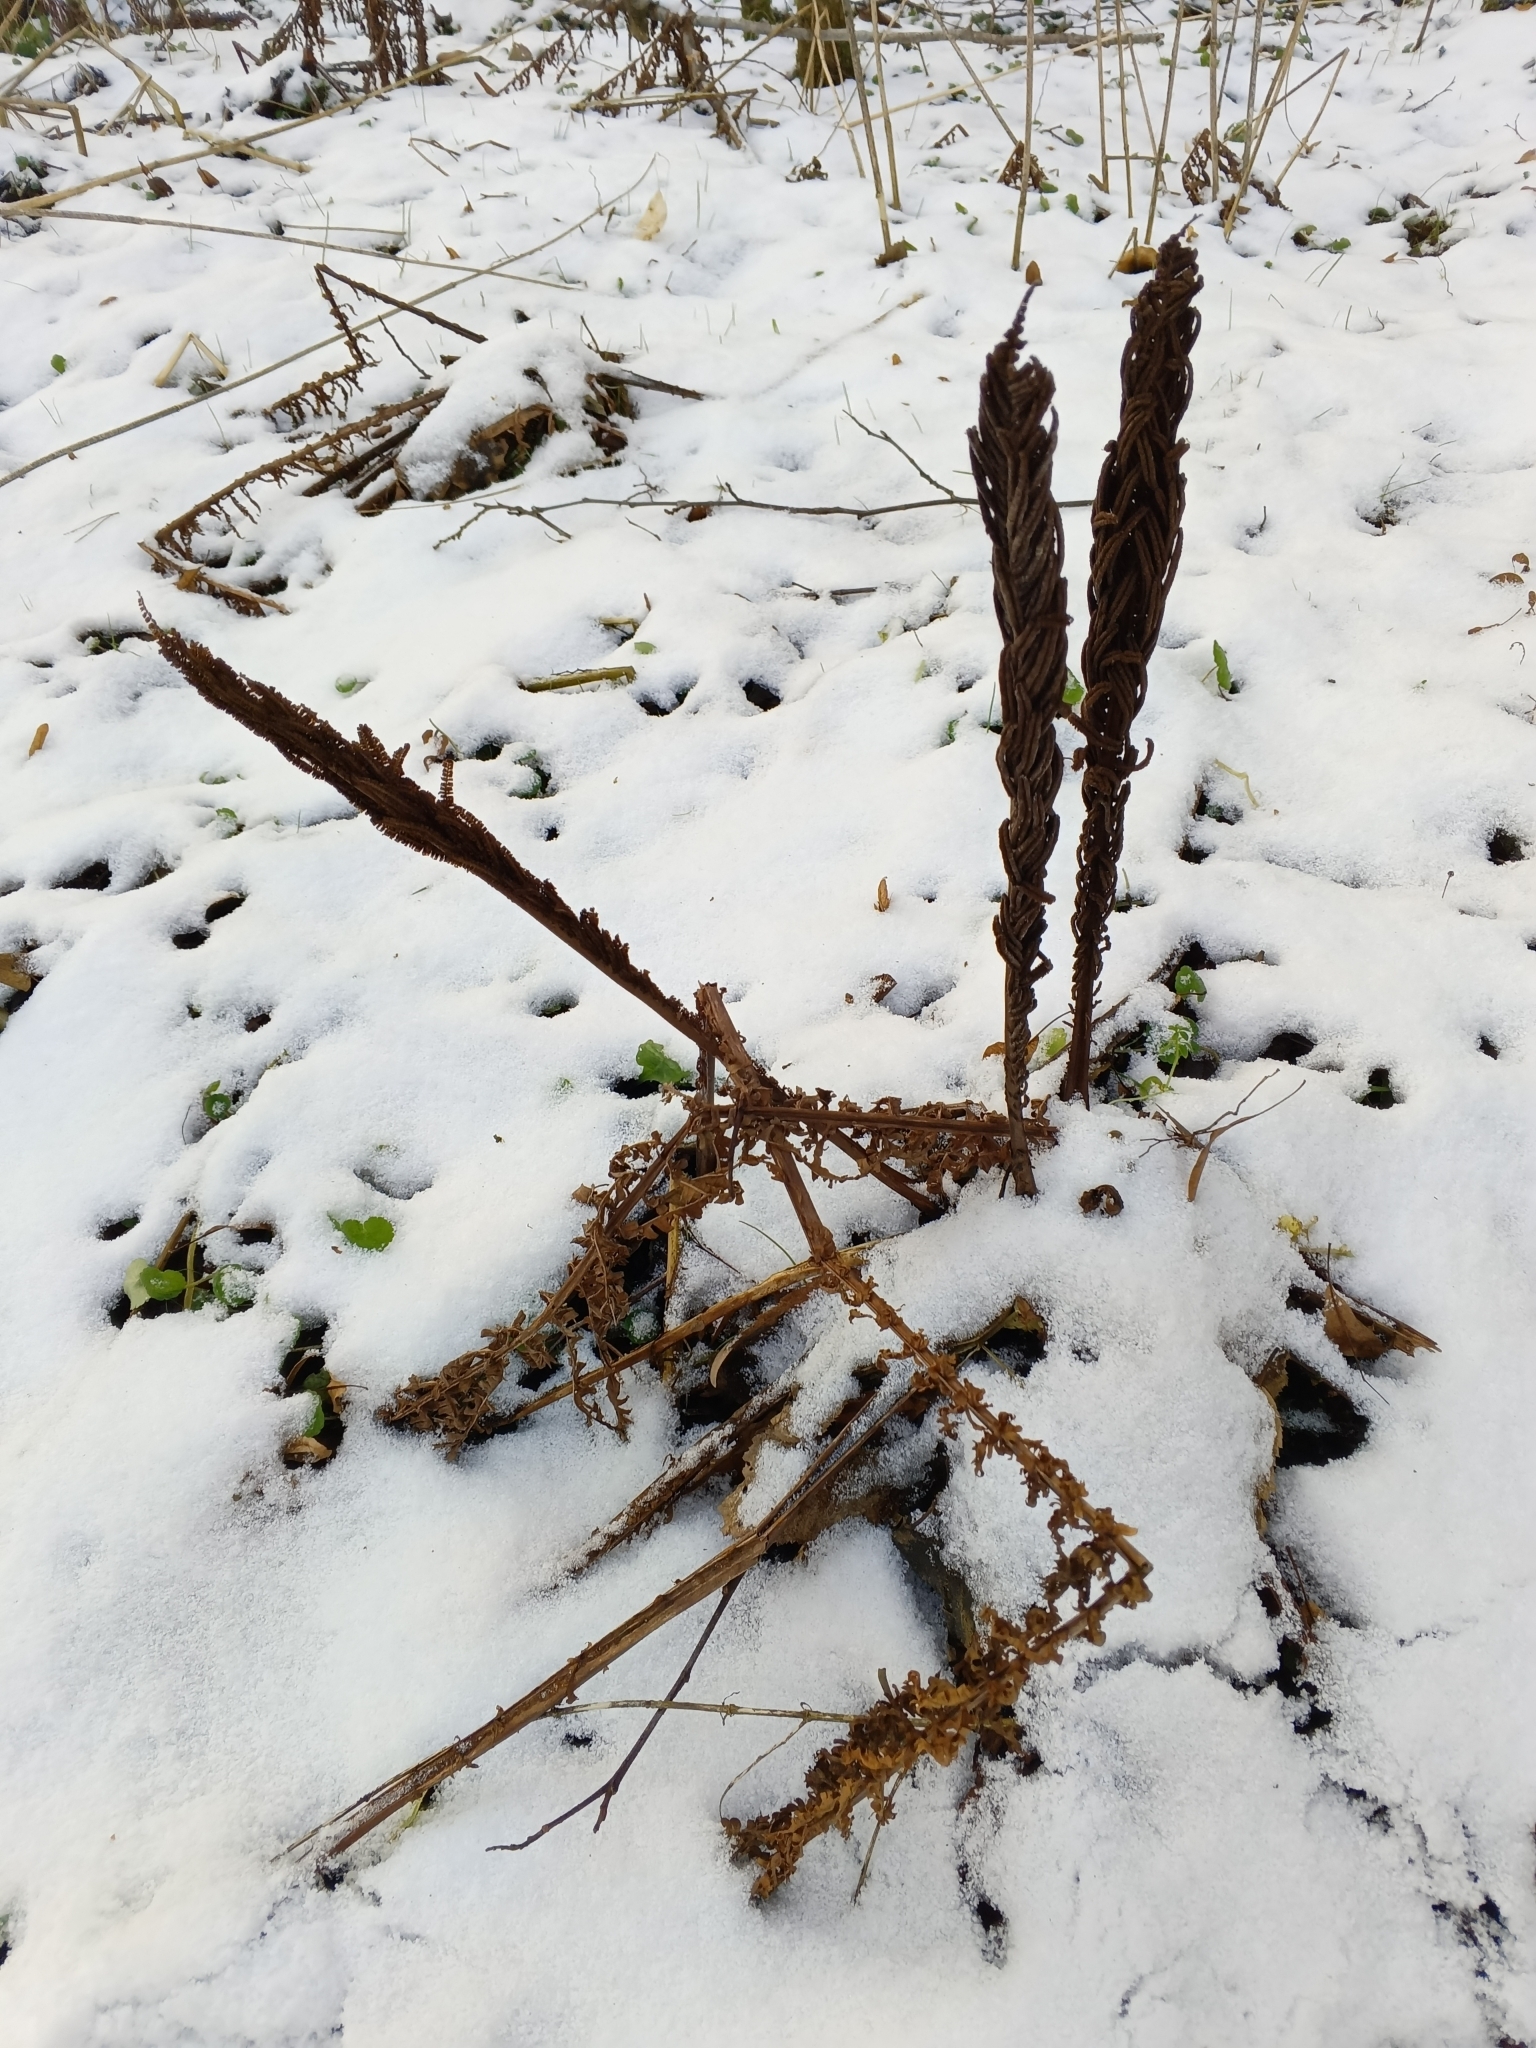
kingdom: Plantae
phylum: Tracheophyta
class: Polypodiopsida
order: Polypodiales
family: Onocleaceae
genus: Matteuccia
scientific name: Matteuccia struthiopteris
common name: Ostrich fern
